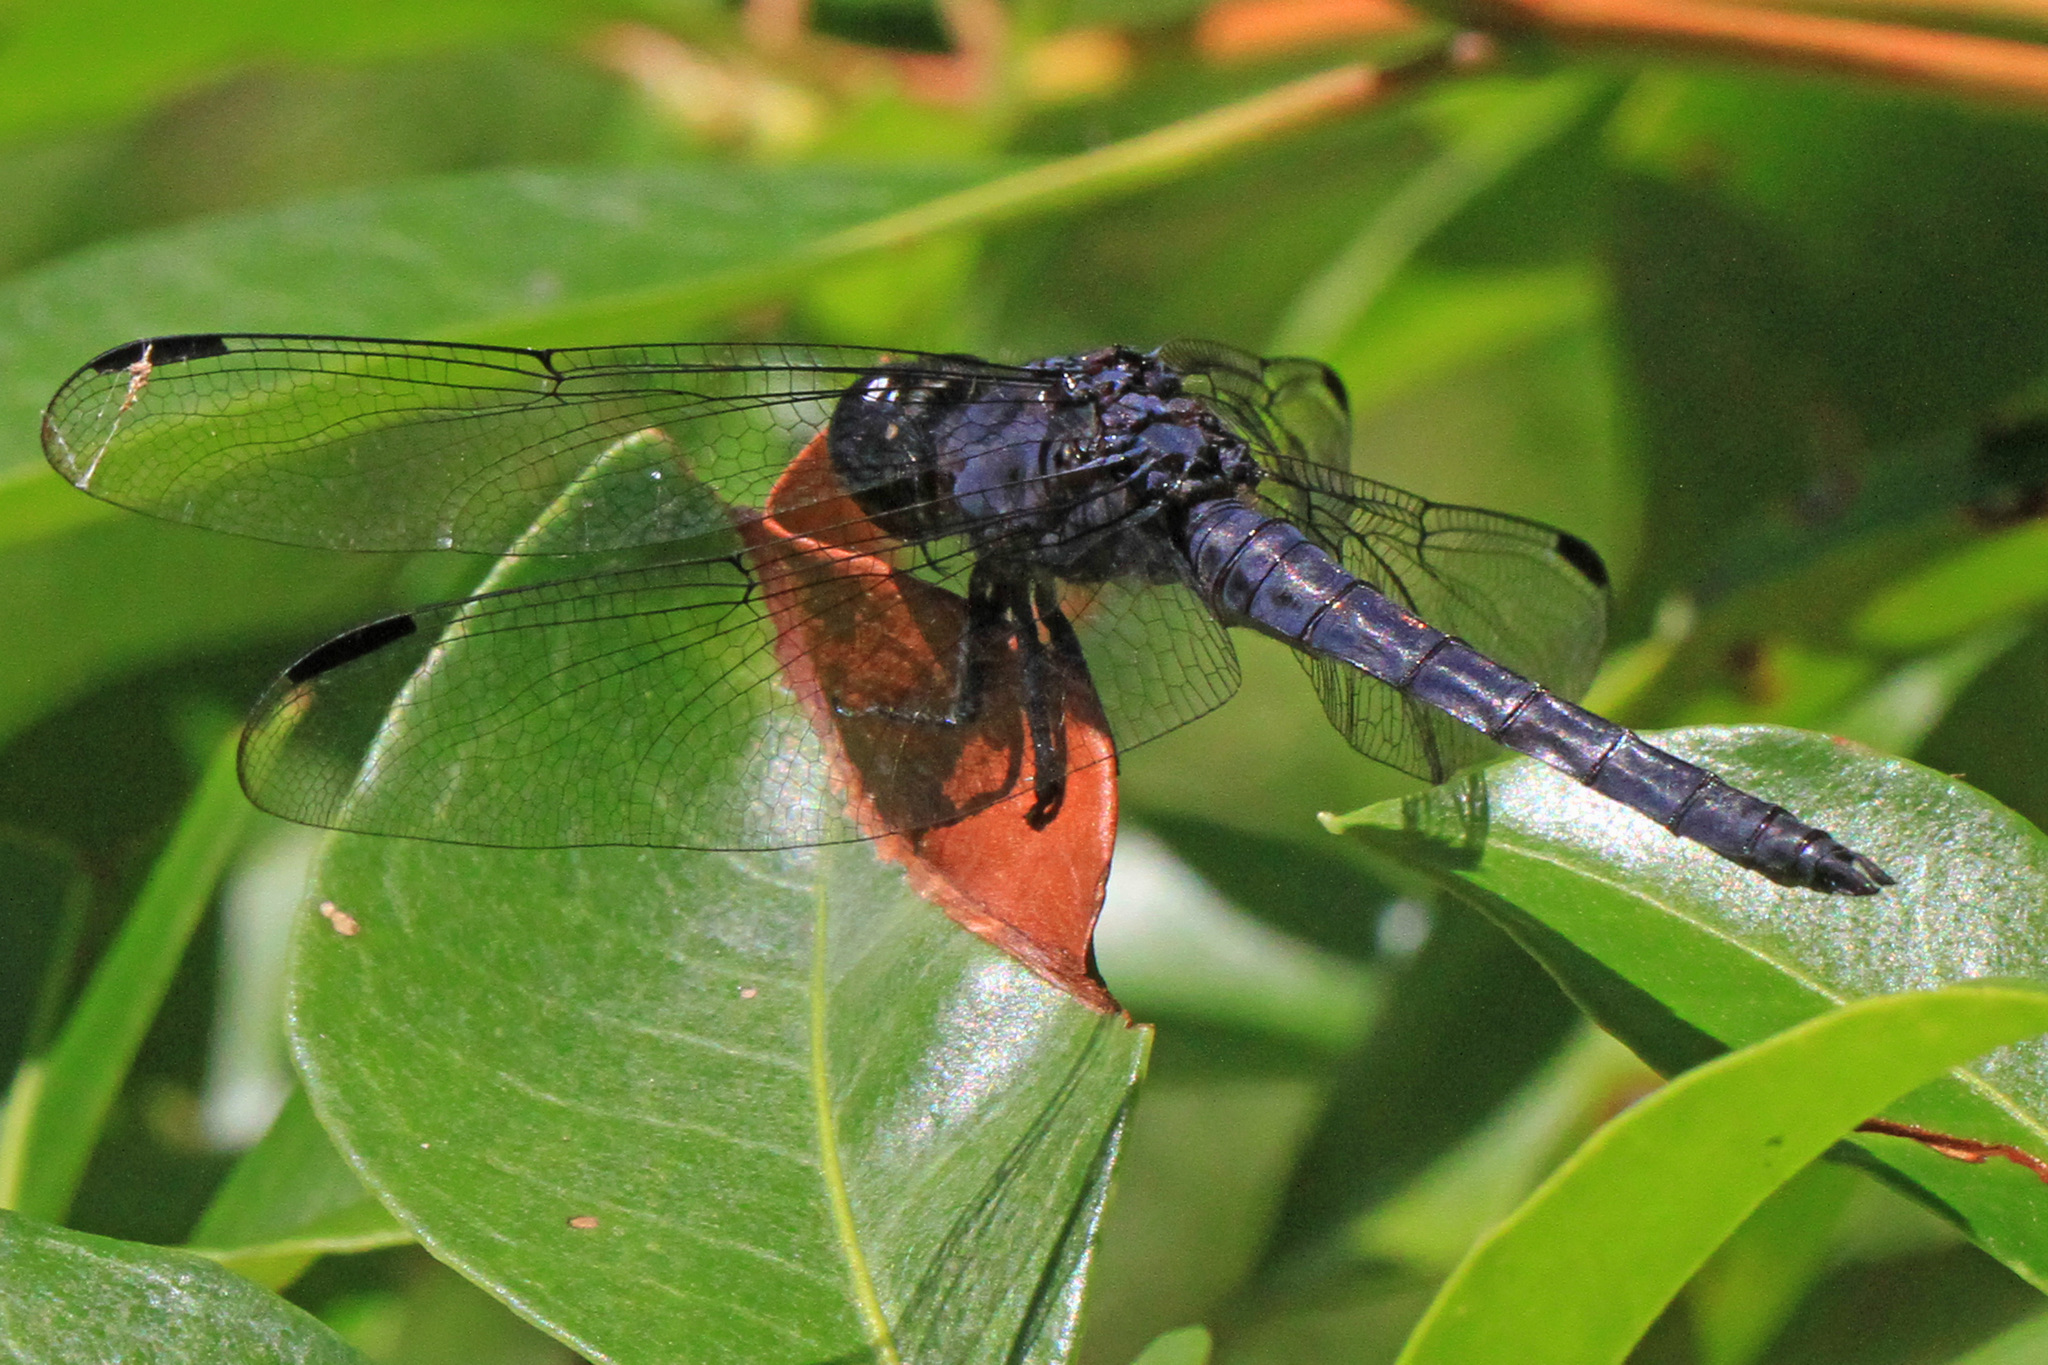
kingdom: Animalia
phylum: Arthropoda
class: Insecta
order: Odonata
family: Libellulidae
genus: Libellula
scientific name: Libellula incesta
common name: Slaty skimmer
